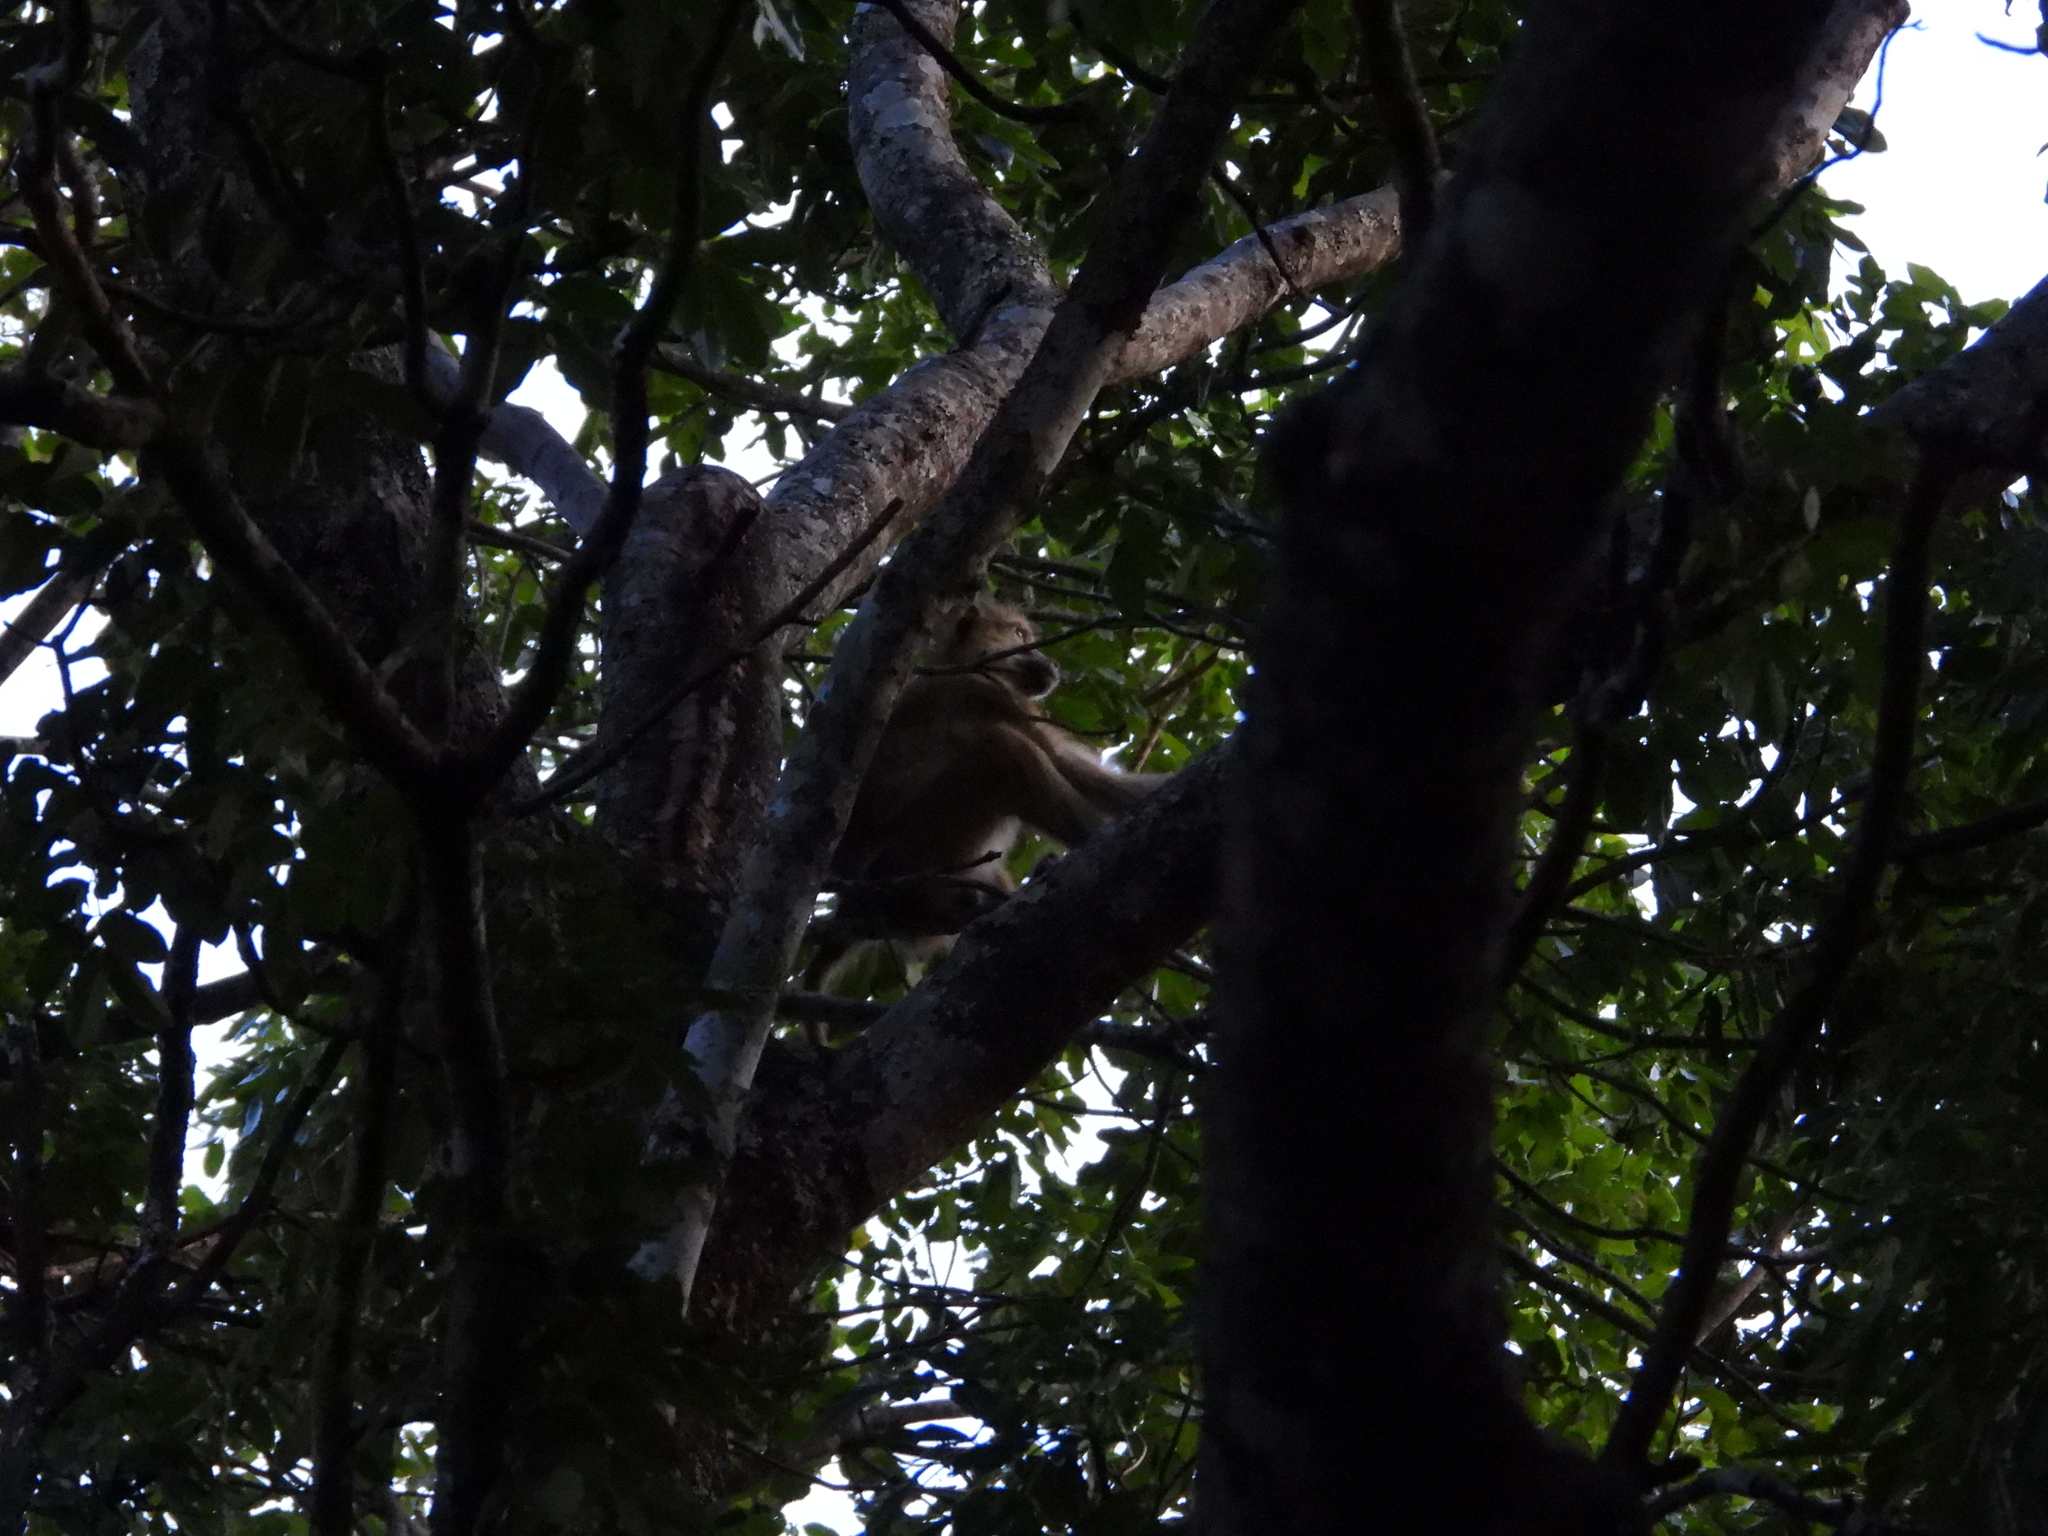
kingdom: Animalia
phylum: Chordata
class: Mammalia
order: Primates
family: Cercopithecidae
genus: Papio
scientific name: Papio kindae
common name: Kinda baboon
